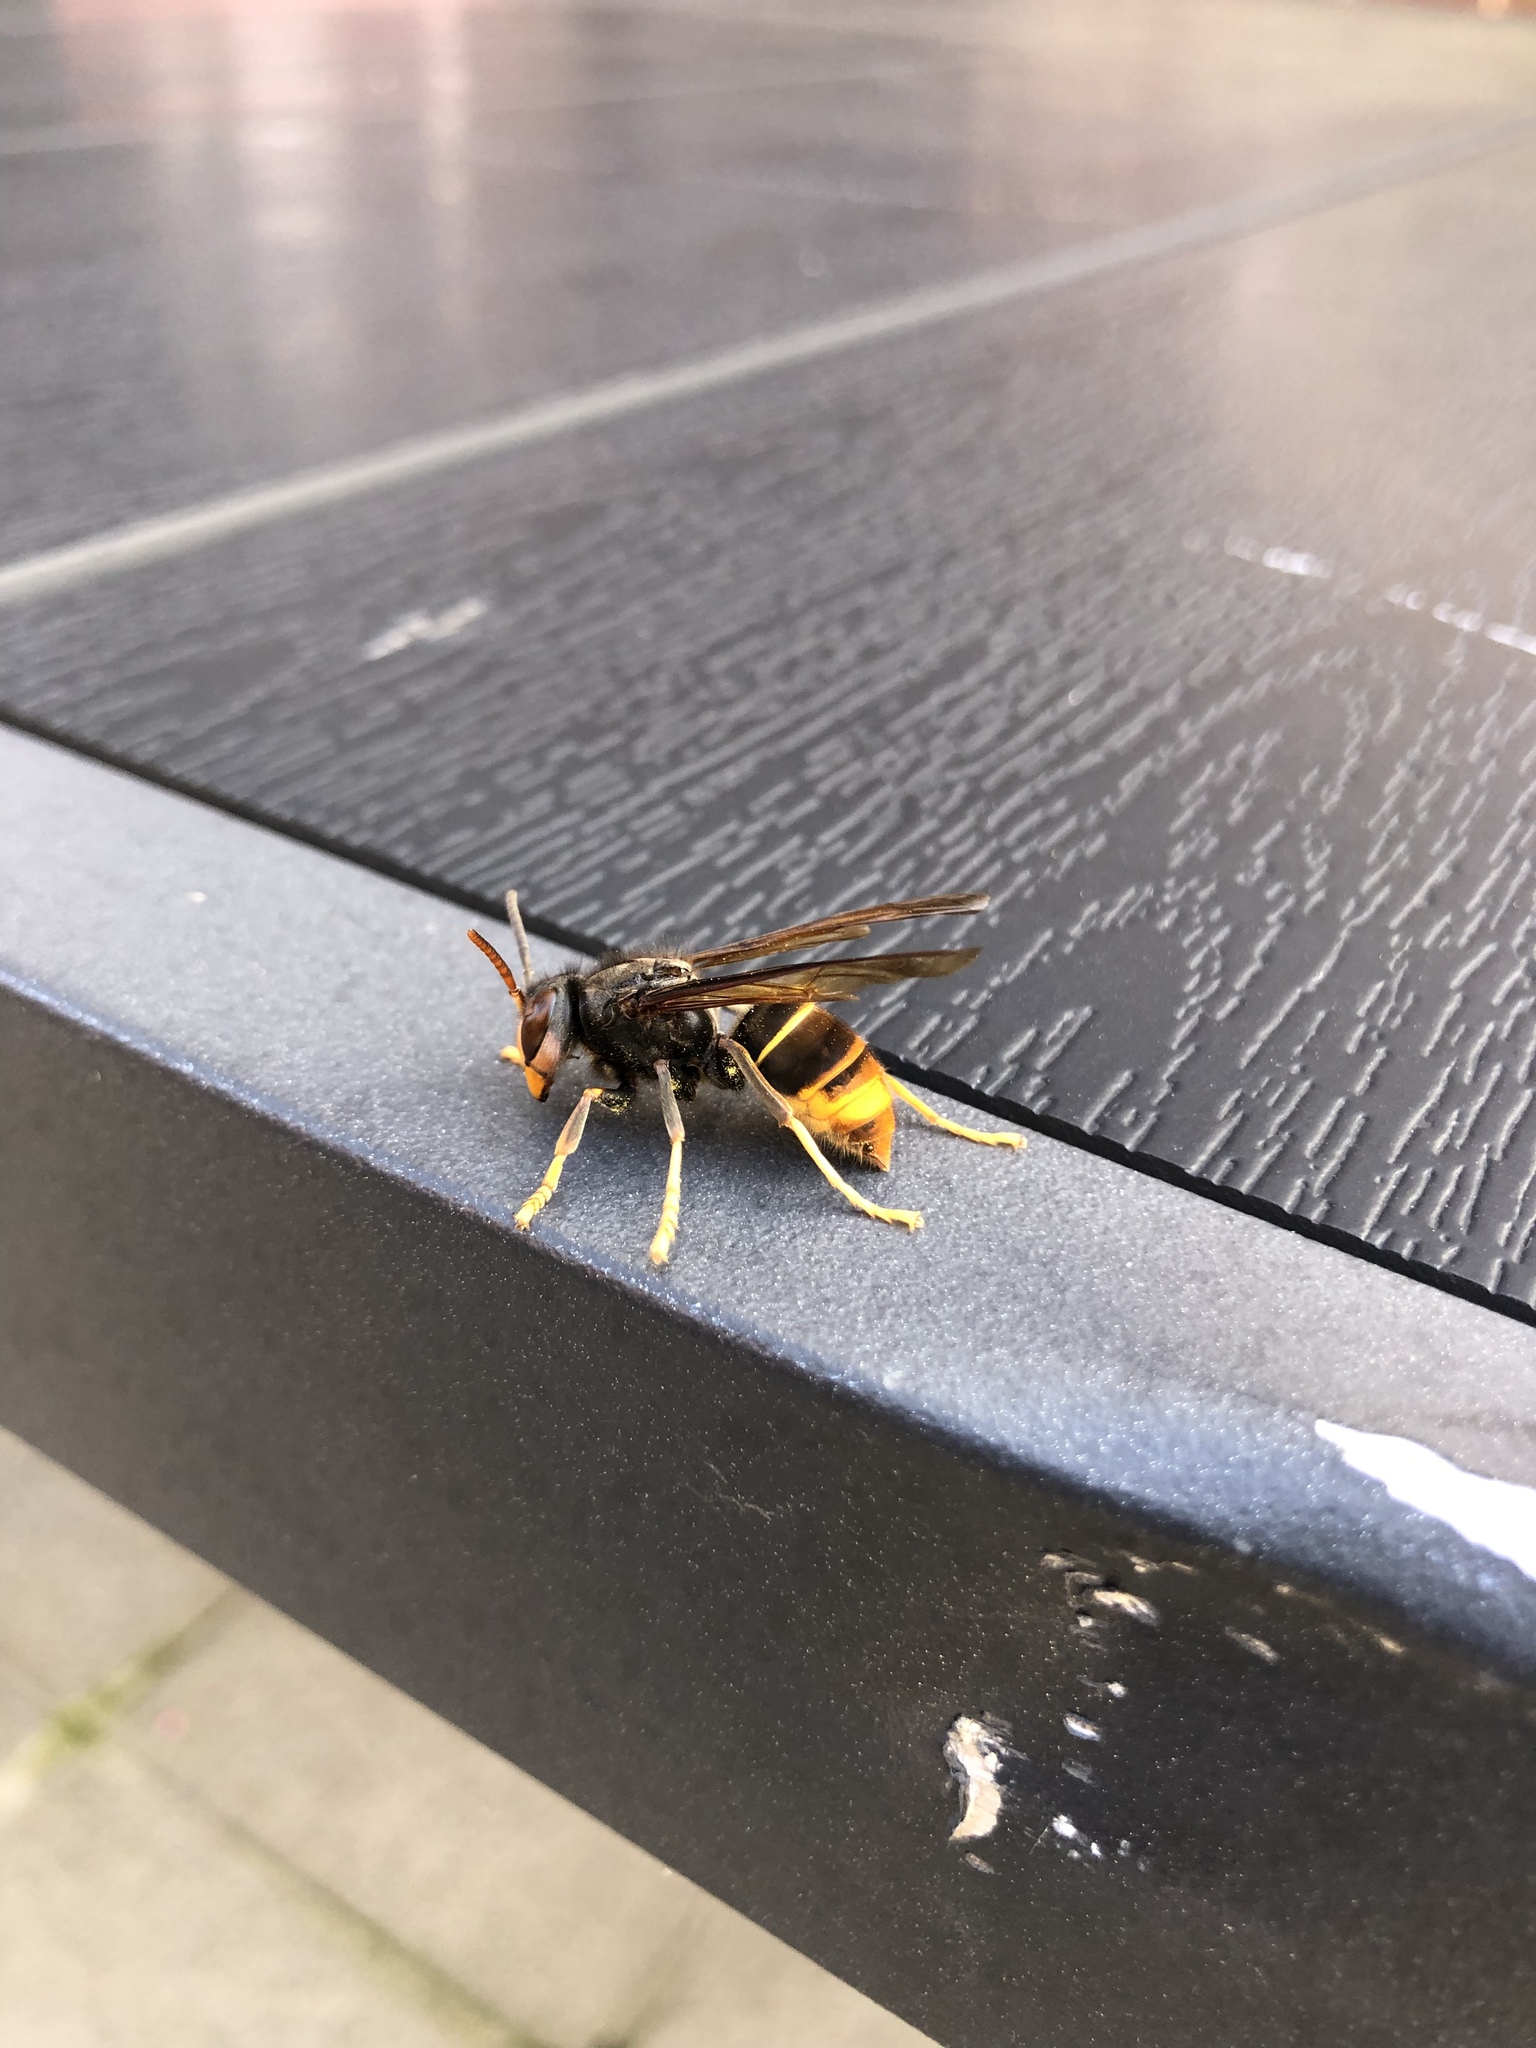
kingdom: Animalia
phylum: Arthropoda
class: Insecta
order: Hymenoptera
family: Vespidae
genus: Vespa
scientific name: Vespa velutina
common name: Asian hornet
